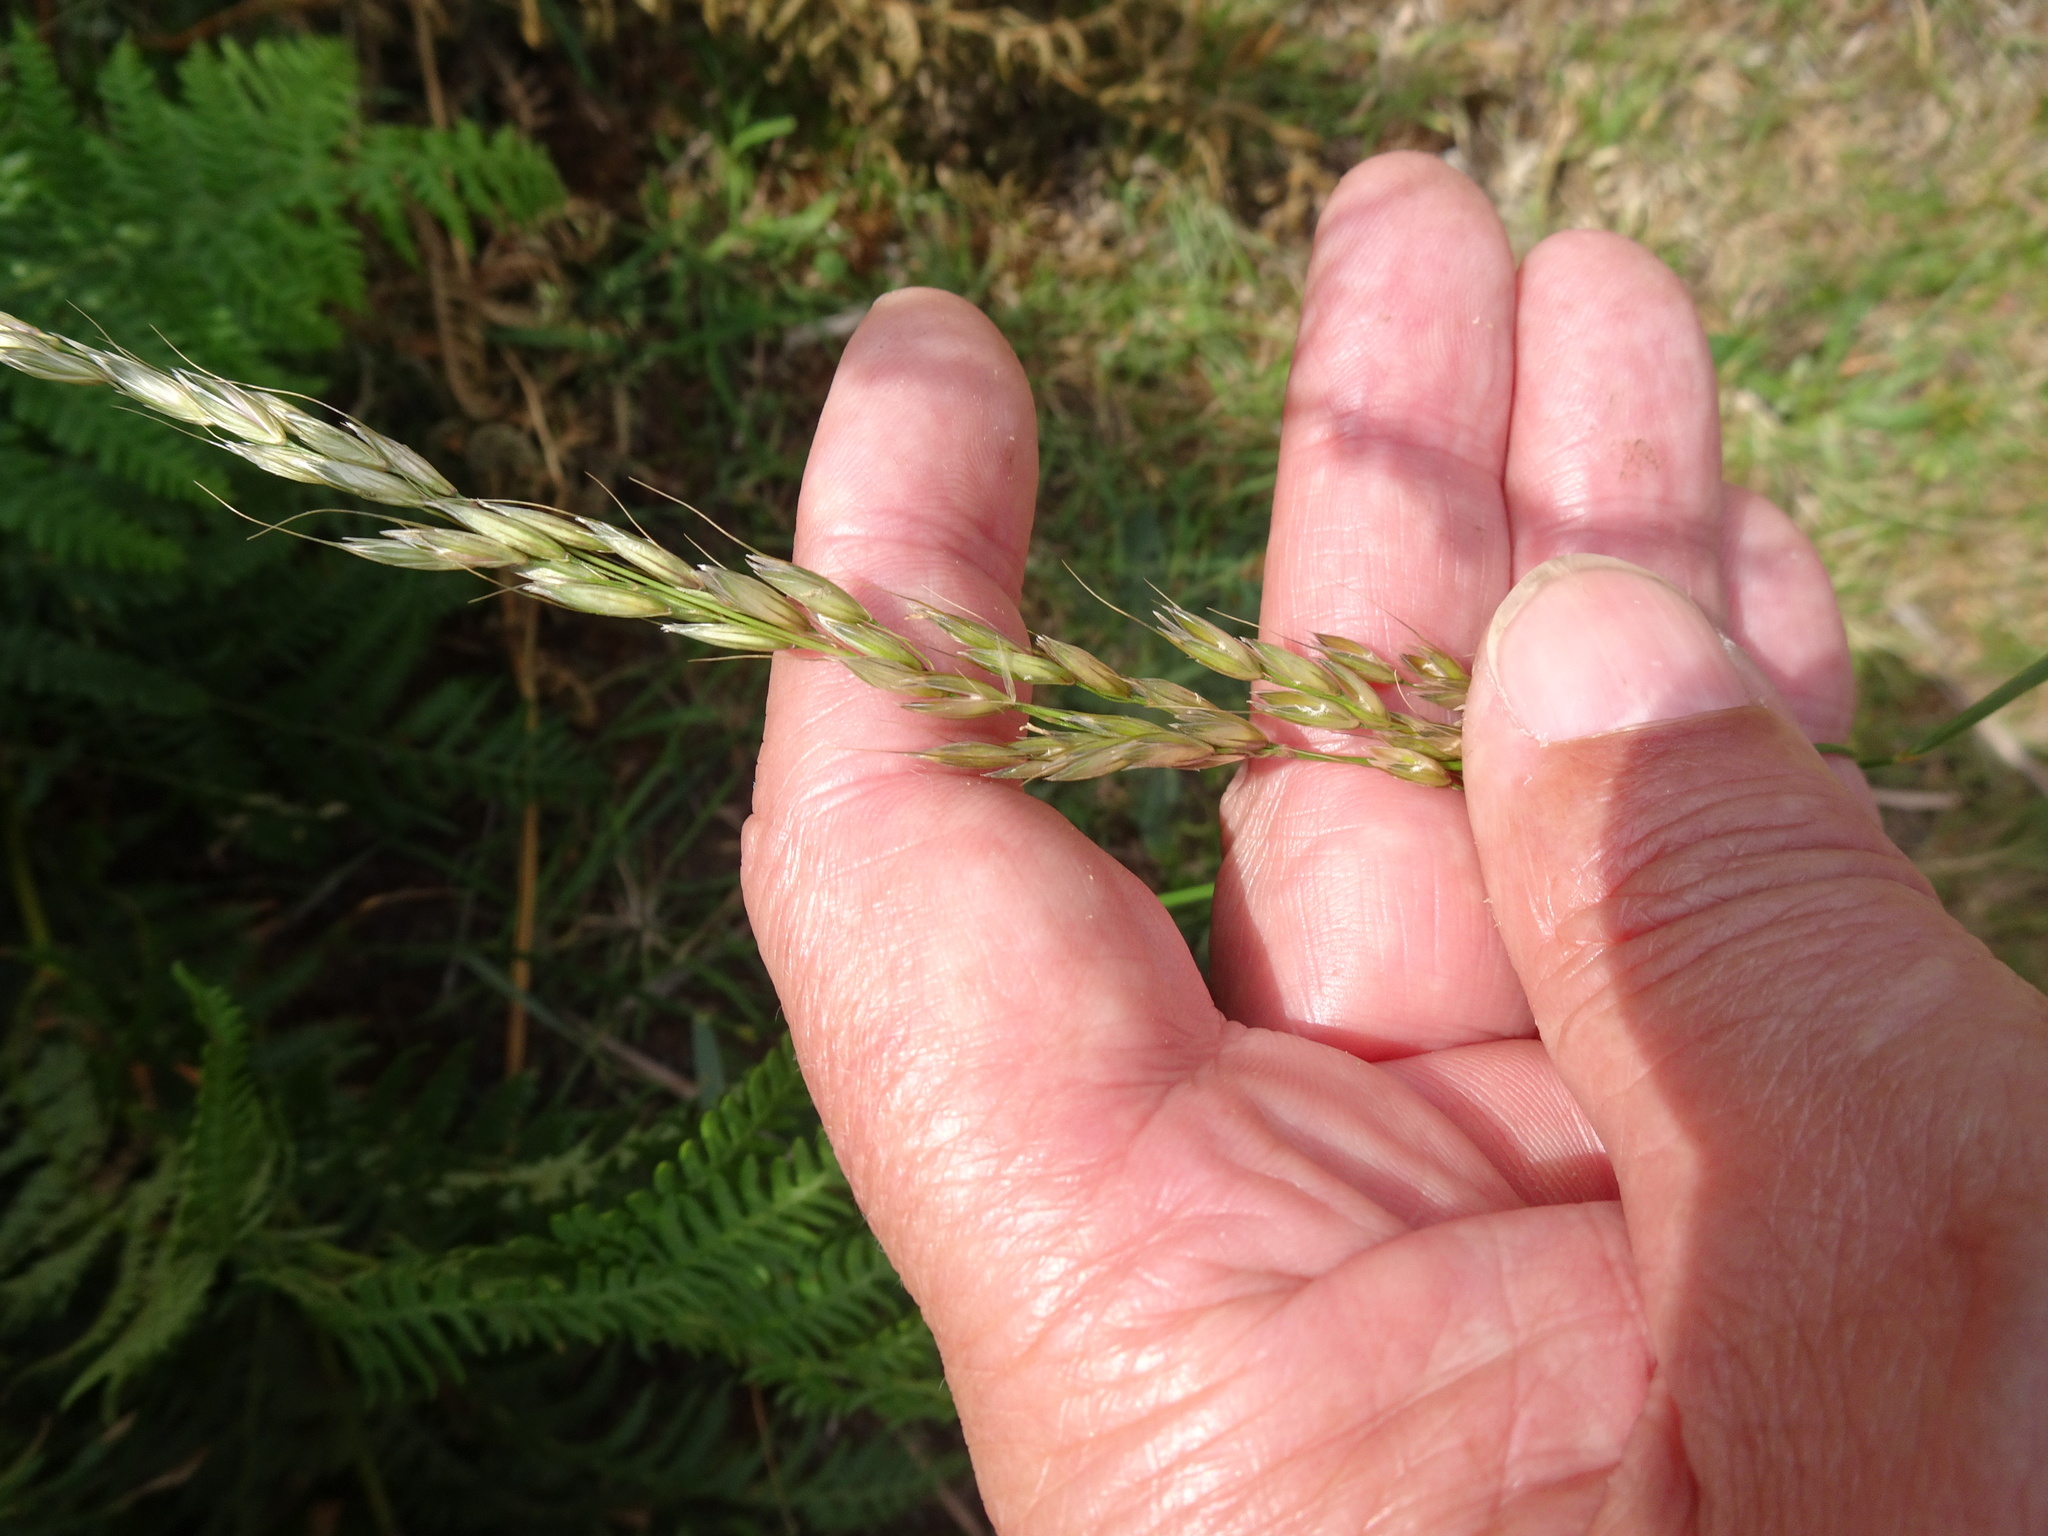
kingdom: Plantae
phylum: Tracheophyta
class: Liliopsida
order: Poales
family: Poaceae
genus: Arrhenatherum
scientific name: Arrhenatherum elatius
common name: Tall oatgrass
